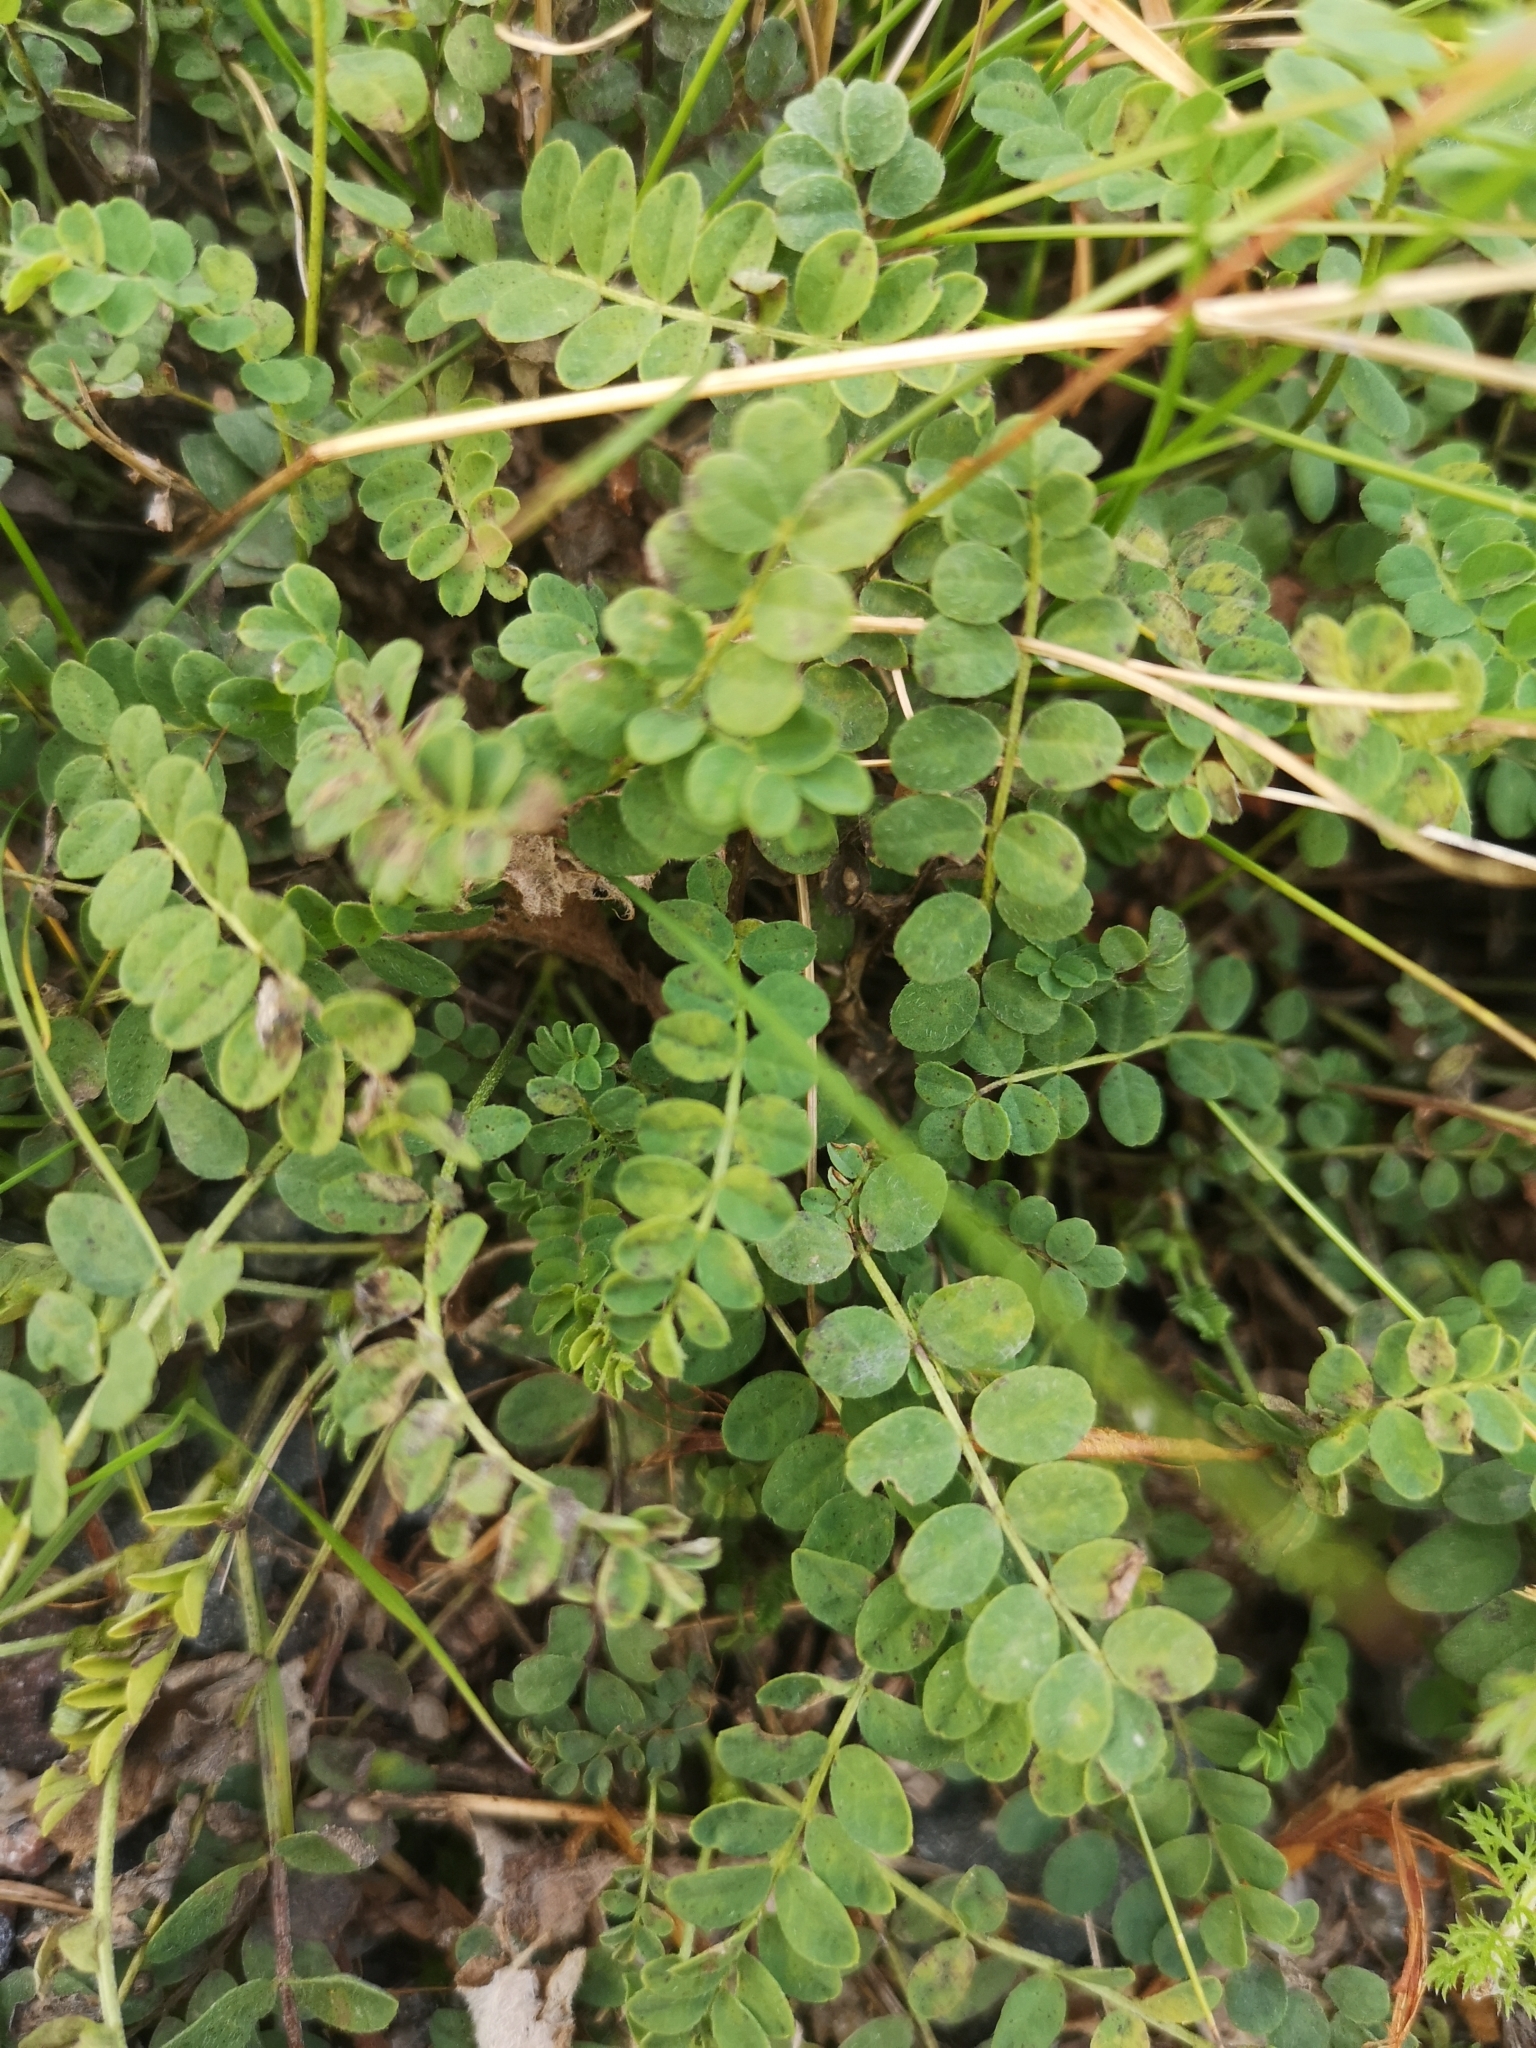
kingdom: Plantae
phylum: Tracheophyta
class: Magnoliopsida
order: Fabales
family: Fabaceae
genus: Astragalus
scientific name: Astragalus alpinus
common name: Alpine milk-vetch
